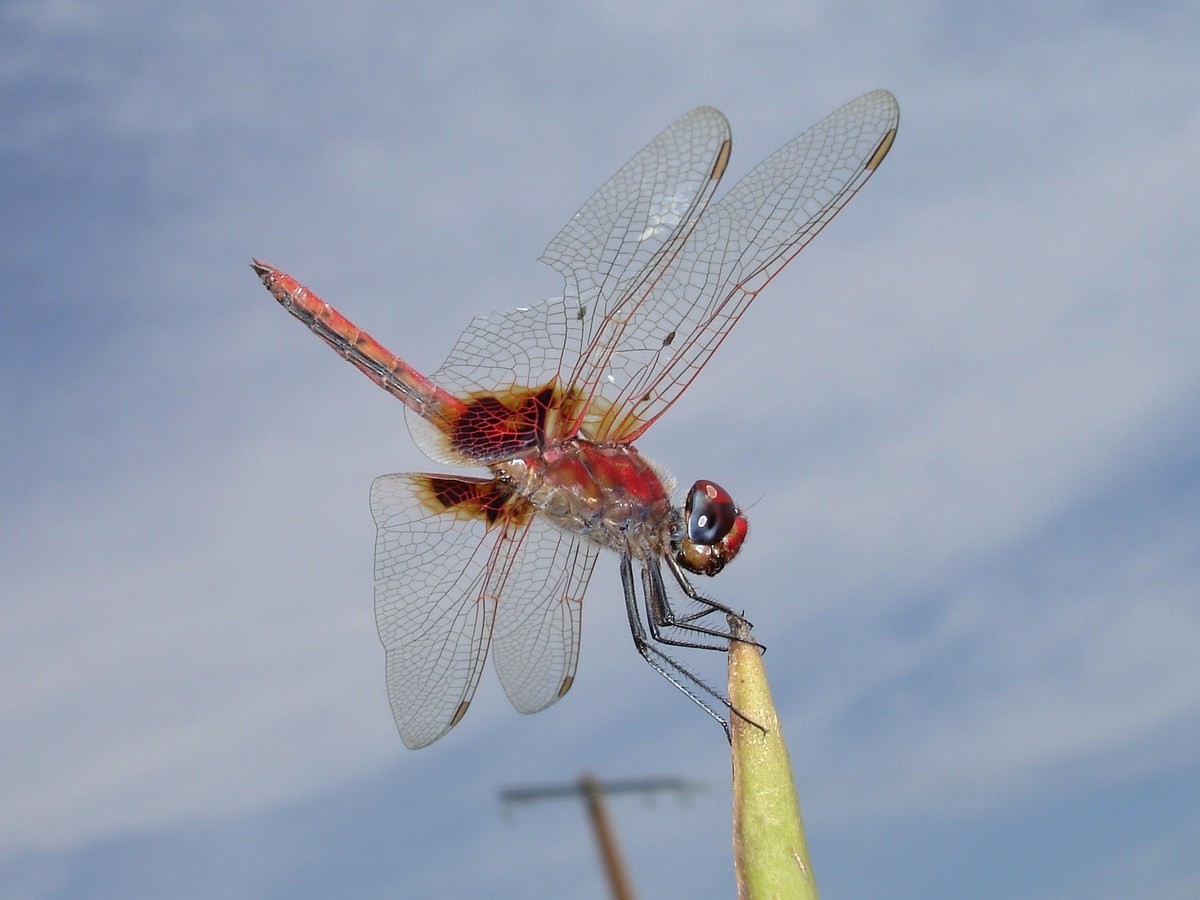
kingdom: Animalia
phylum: Arthropoda
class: Insecta
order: Odonata
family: Libellulidae
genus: Urothemis
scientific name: Urothemis assignata
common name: Red basker
